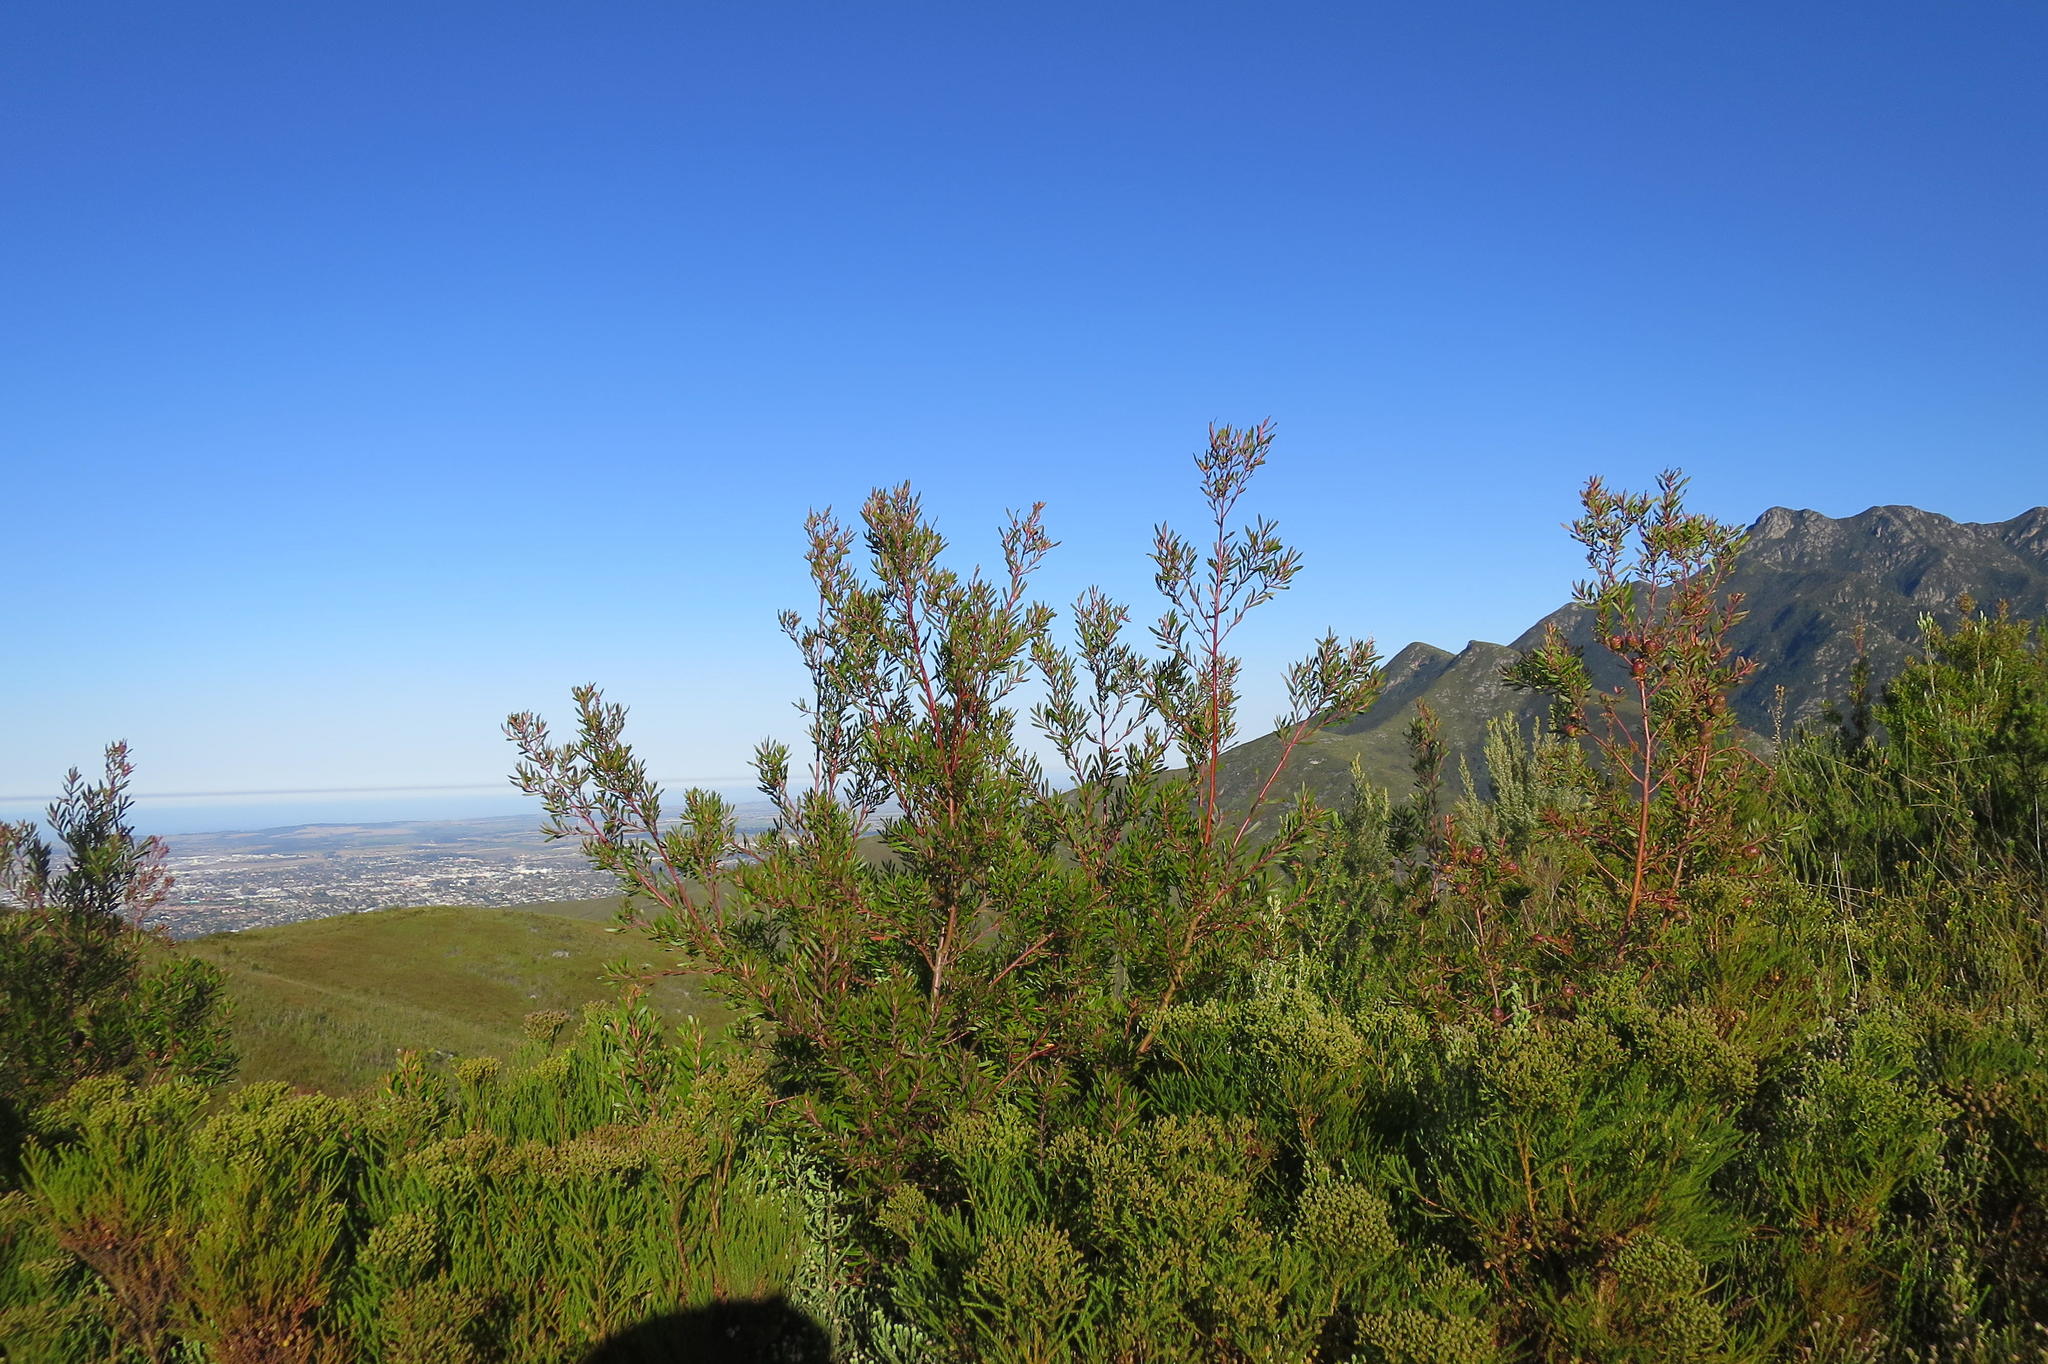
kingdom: Plantae
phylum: Tracheophyta
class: Magnoliopsida
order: Proteales
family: Proteaceae
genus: Leucadendron
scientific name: Leucadendron conicum
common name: Garden route conebush
